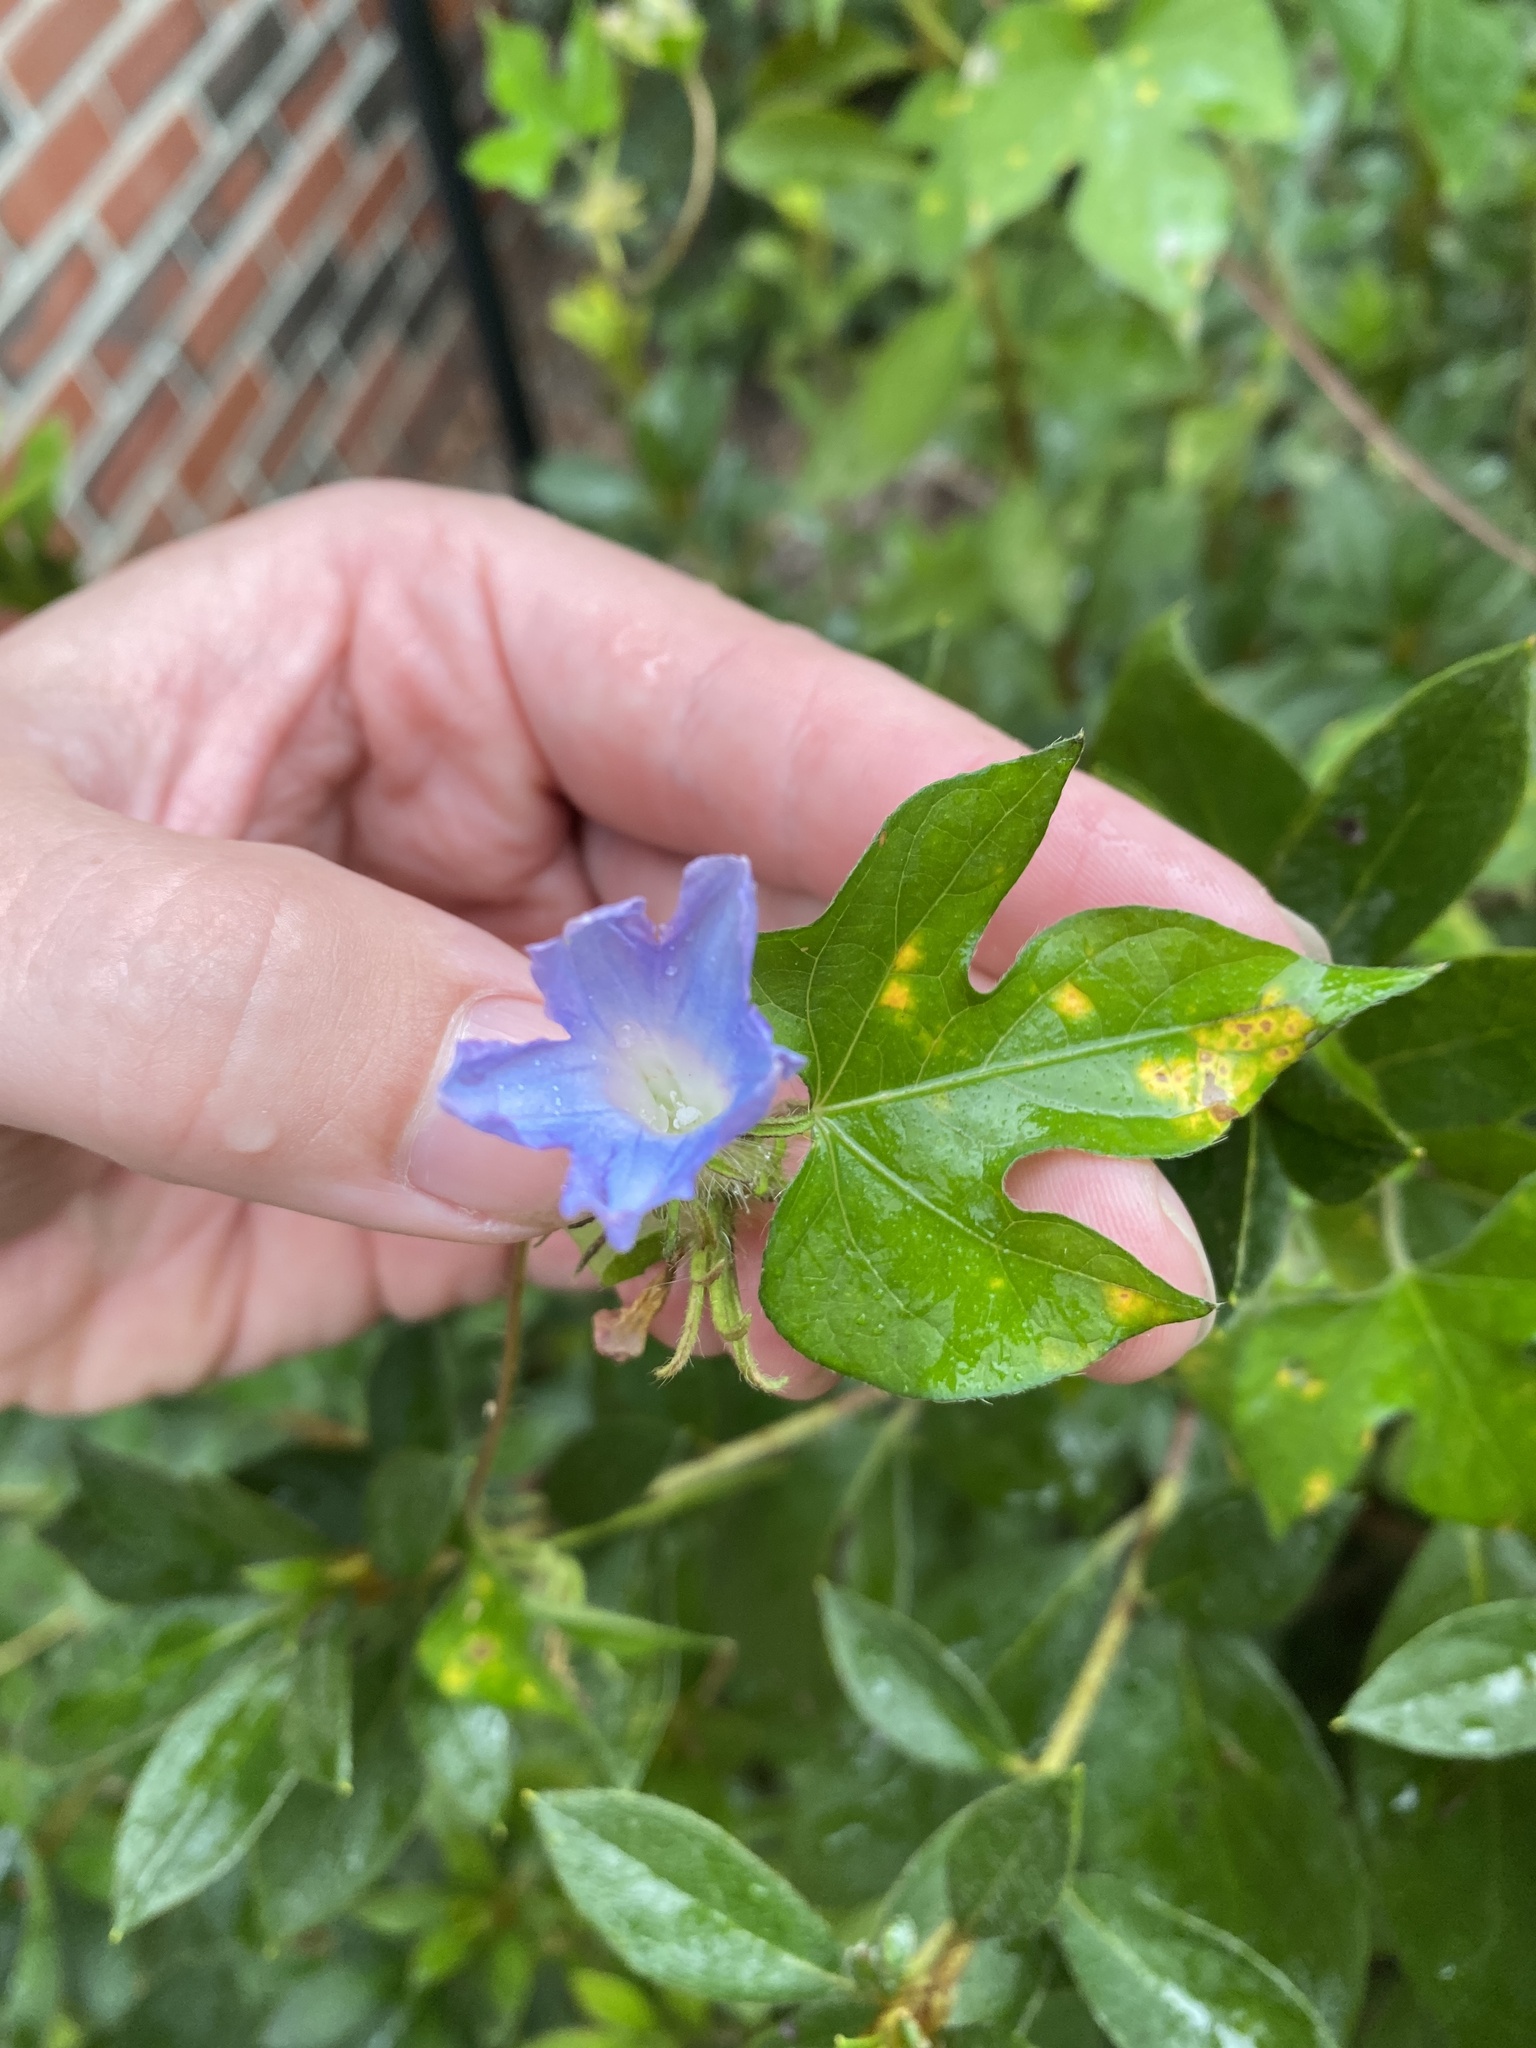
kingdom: Plantae
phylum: Tracheophyta
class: Magnoliopsida
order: Solanales
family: Convolvulaceae
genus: Ipomoea
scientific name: Ipomoea hederacea
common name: Ivy-leaved morning-glory
